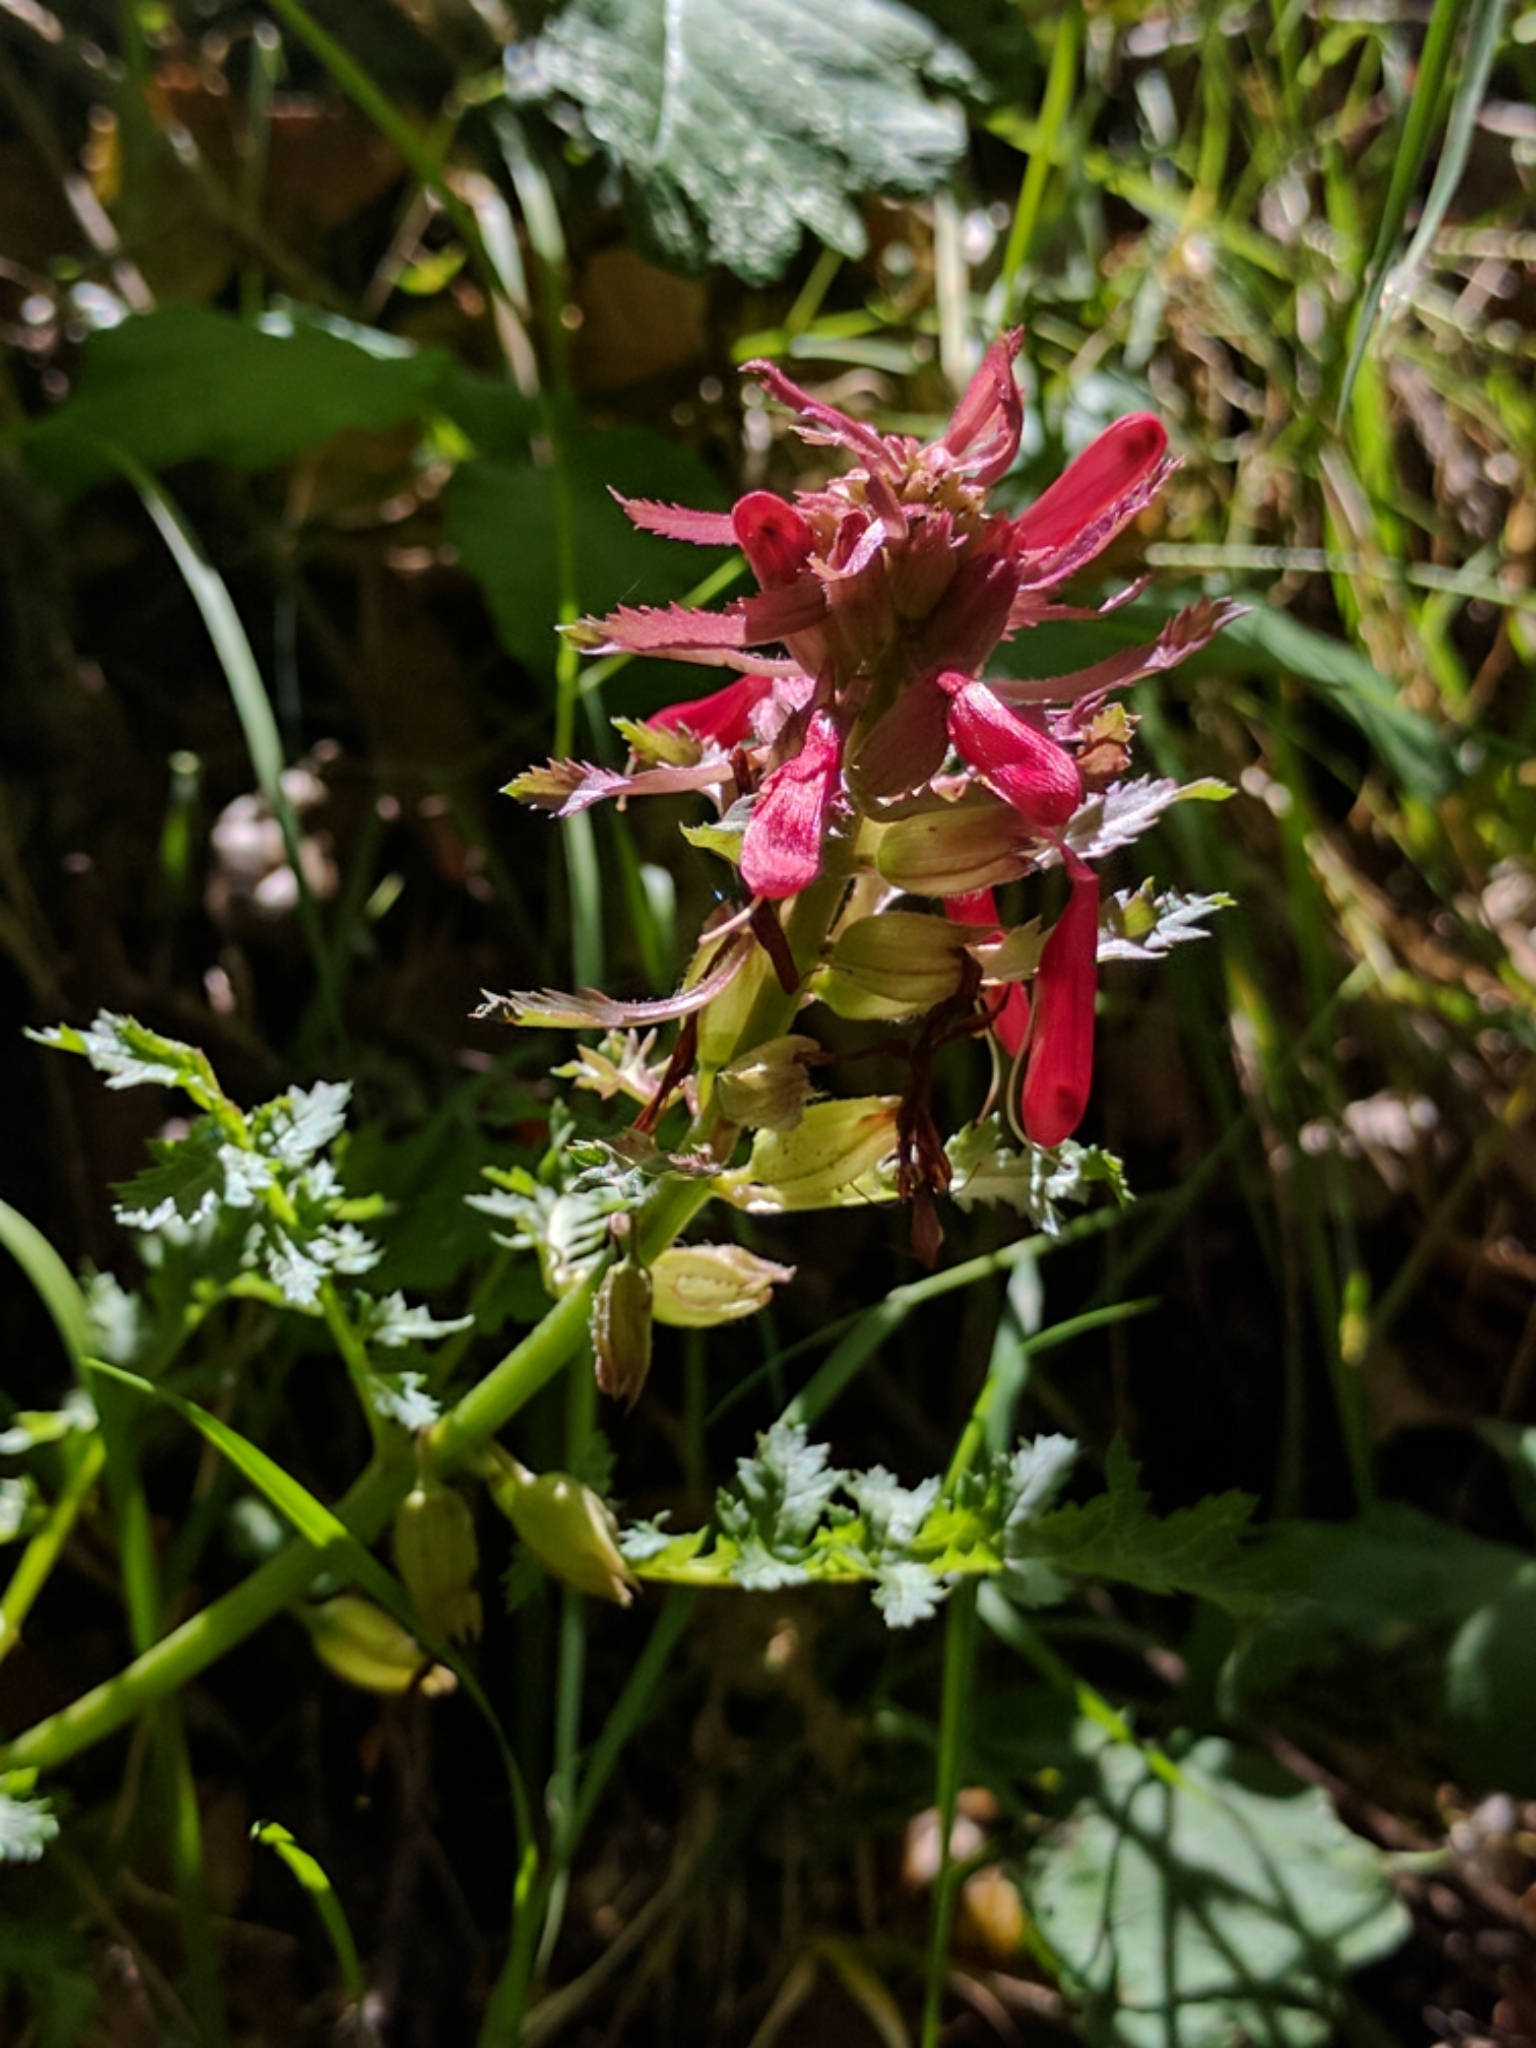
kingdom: Plantae
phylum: Tracheophyta
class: Magnoliopsida
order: Lamiales
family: Orobanchaceae
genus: Pedicularis
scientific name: Pedicularis densiflora
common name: Indian warrior
